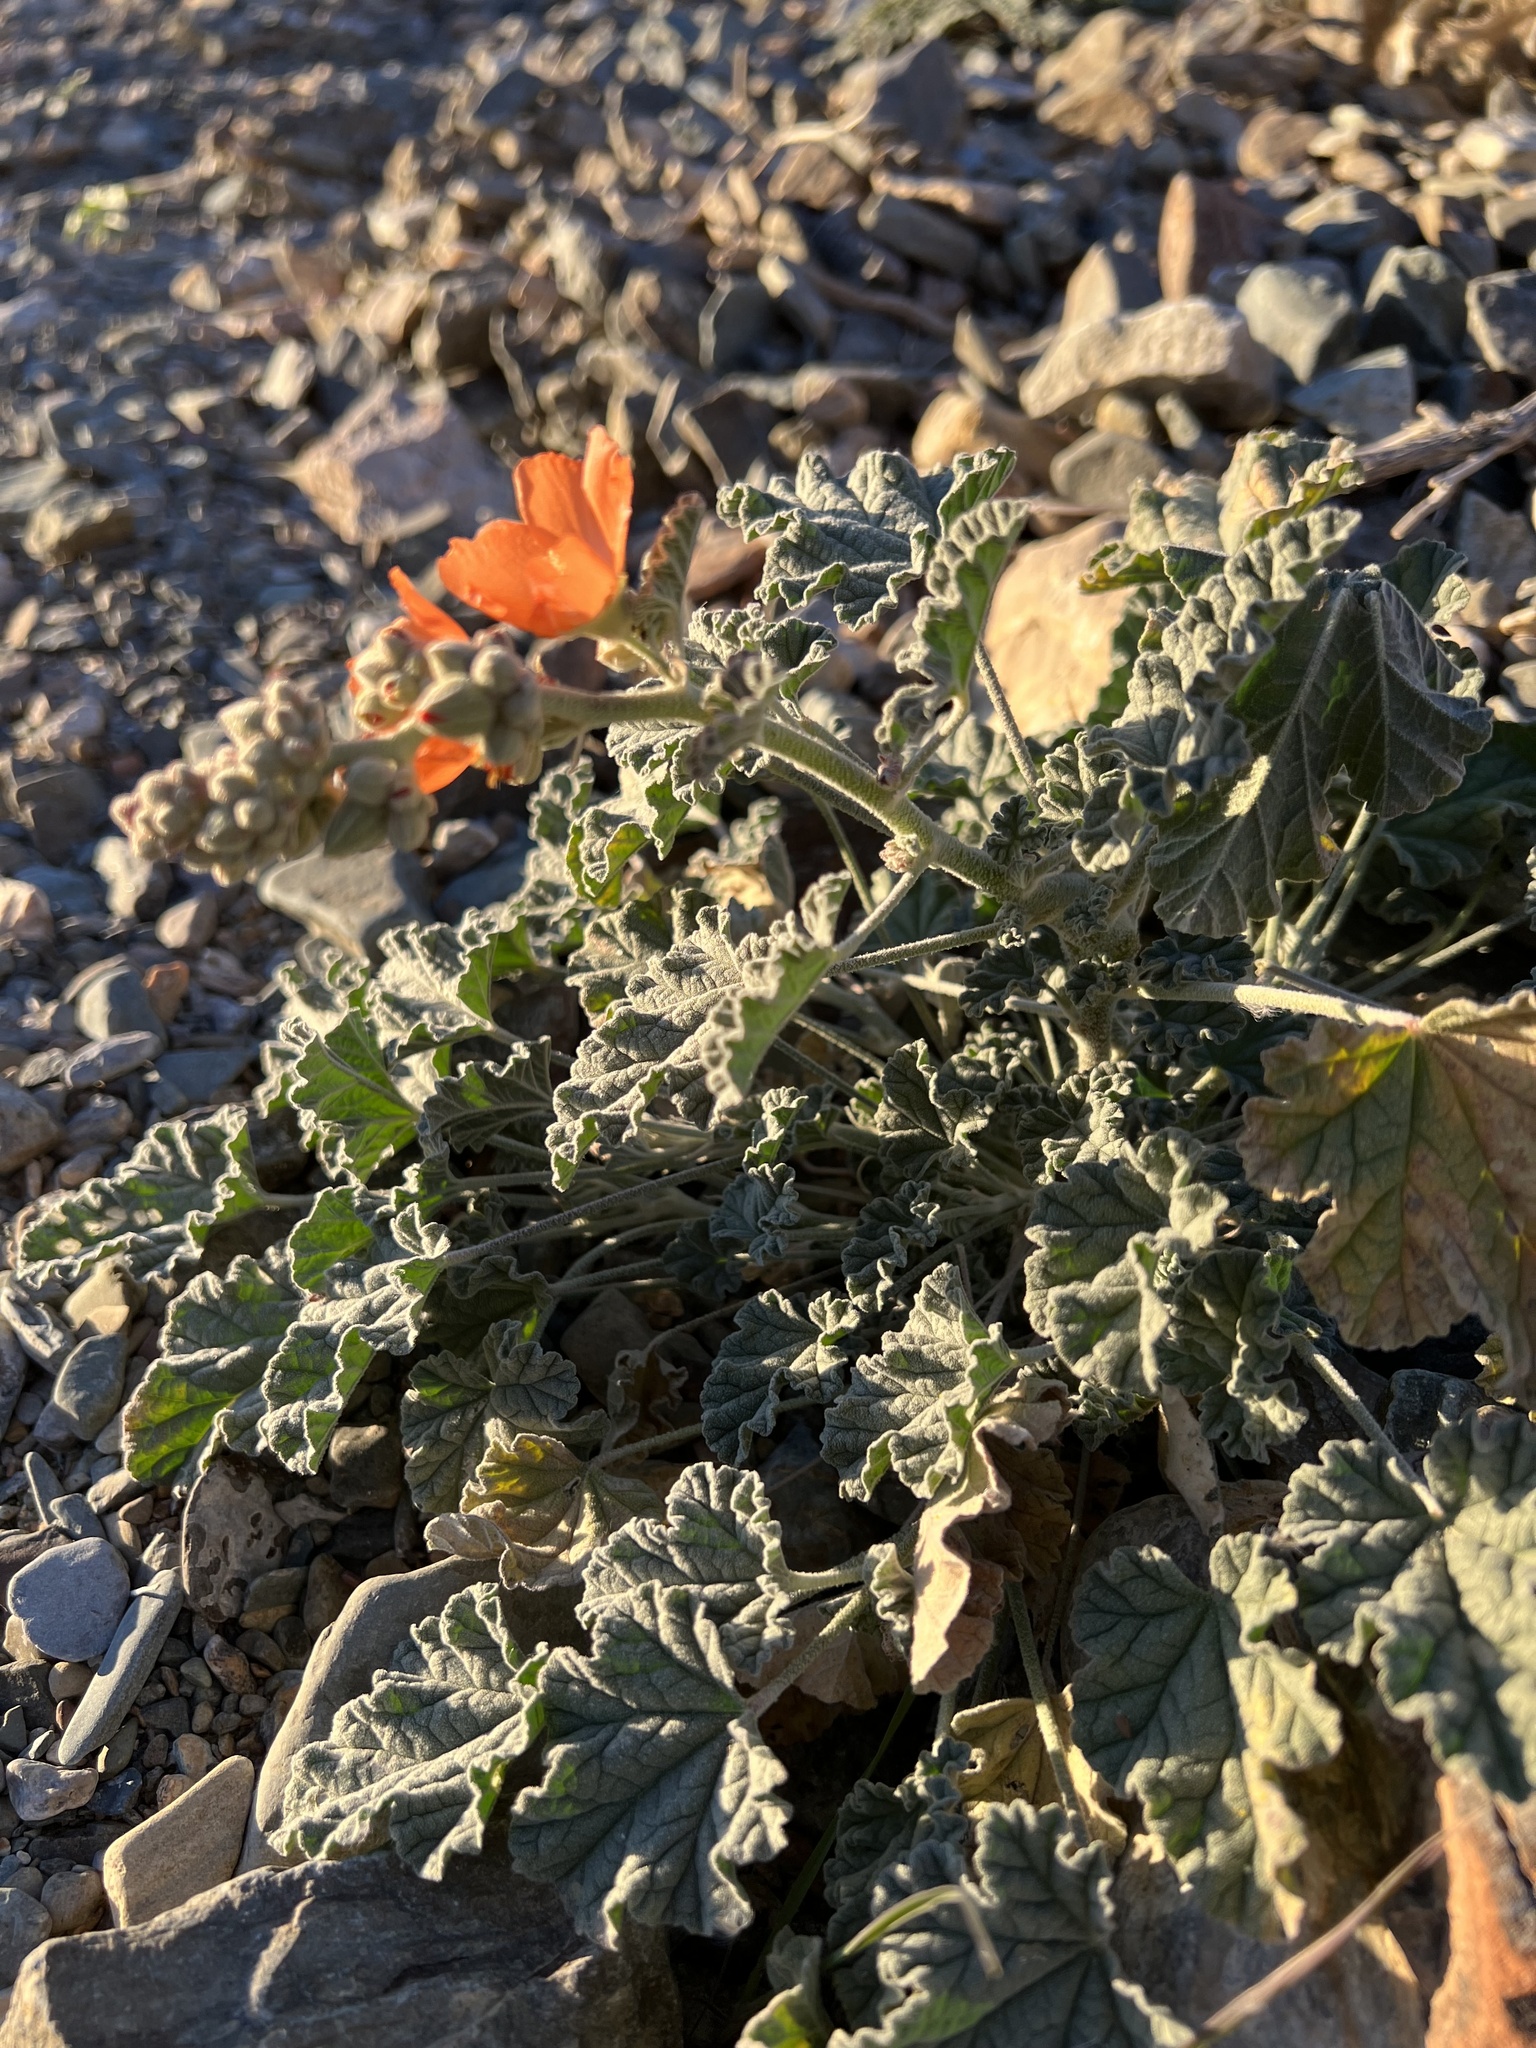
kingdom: Plantae
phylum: Tracheophyta
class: Magnoliopsida
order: Malvales
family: Malvaceae
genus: Sphaeralcea
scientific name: Sphaeralcea ambigua
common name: Apricot globe-mallow
